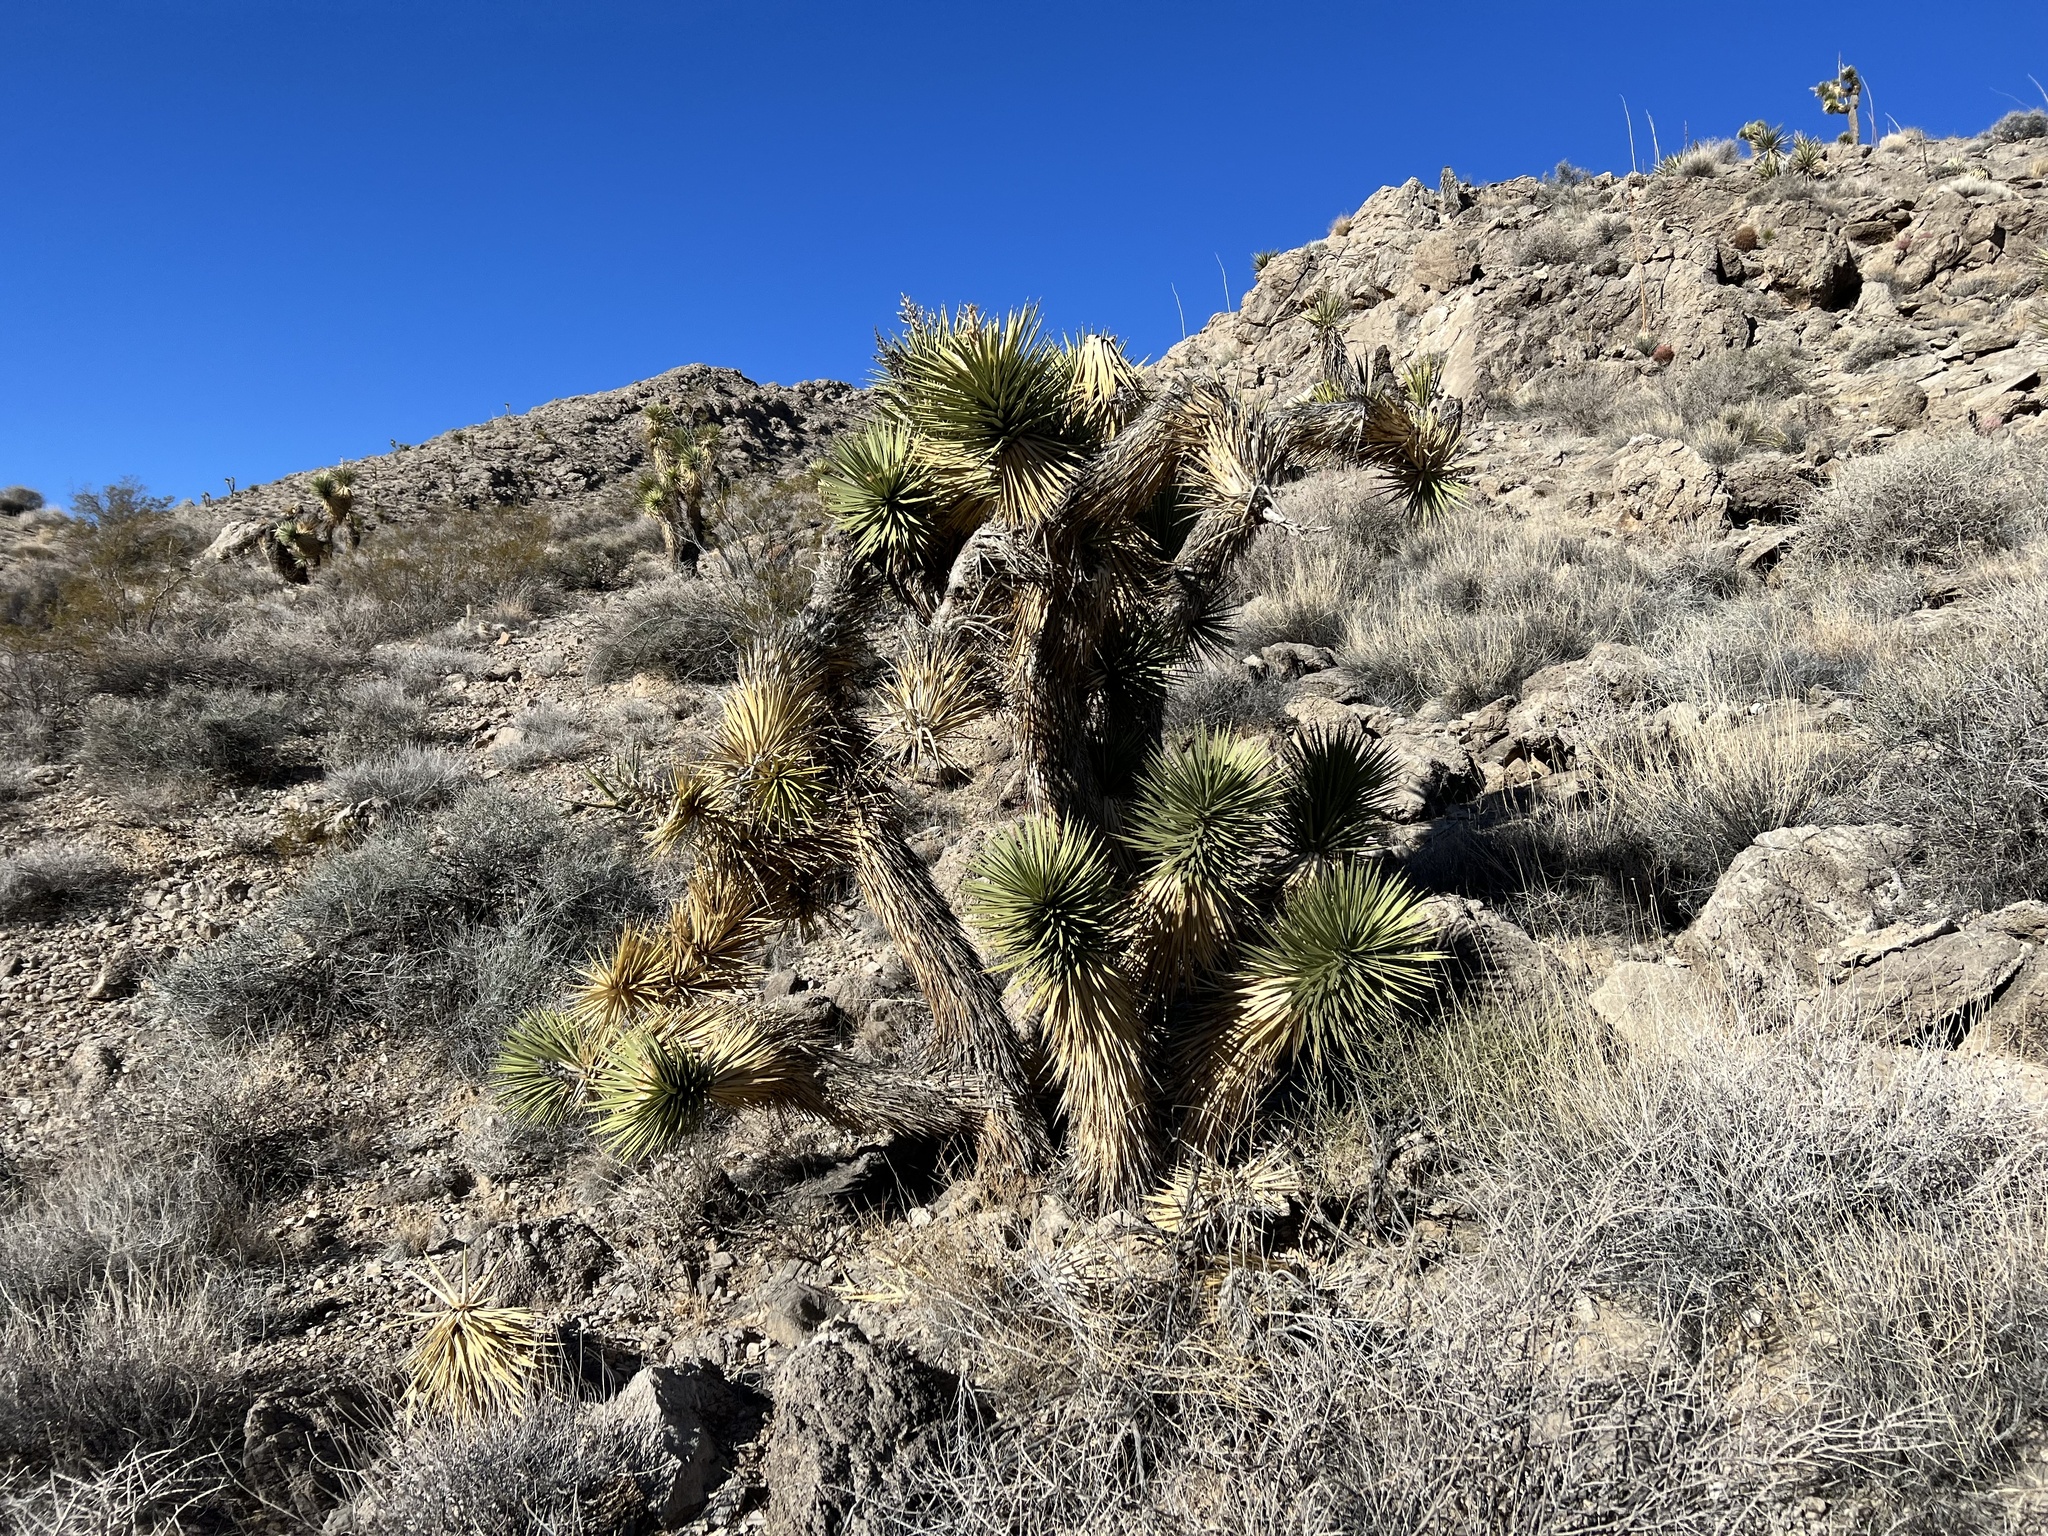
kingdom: Plantae
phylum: Tracheophyta
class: Liliopsida
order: Asparagales
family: Asparagaceae
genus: Yucca
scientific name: Yucca brevifolia
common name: Joshua tree
